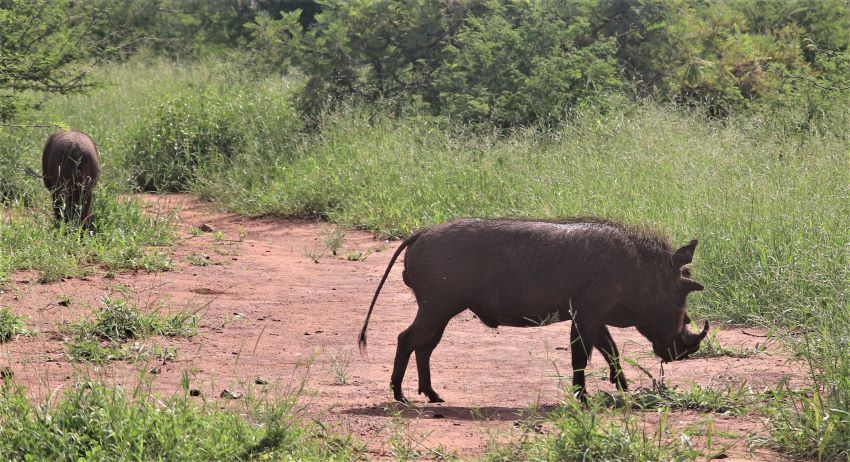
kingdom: Animalia
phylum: Chordata
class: Mammalia
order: Artiodactyla
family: Suidae
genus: Phacochoerus
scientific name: Phacochoerus africanus
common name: Common warthog
